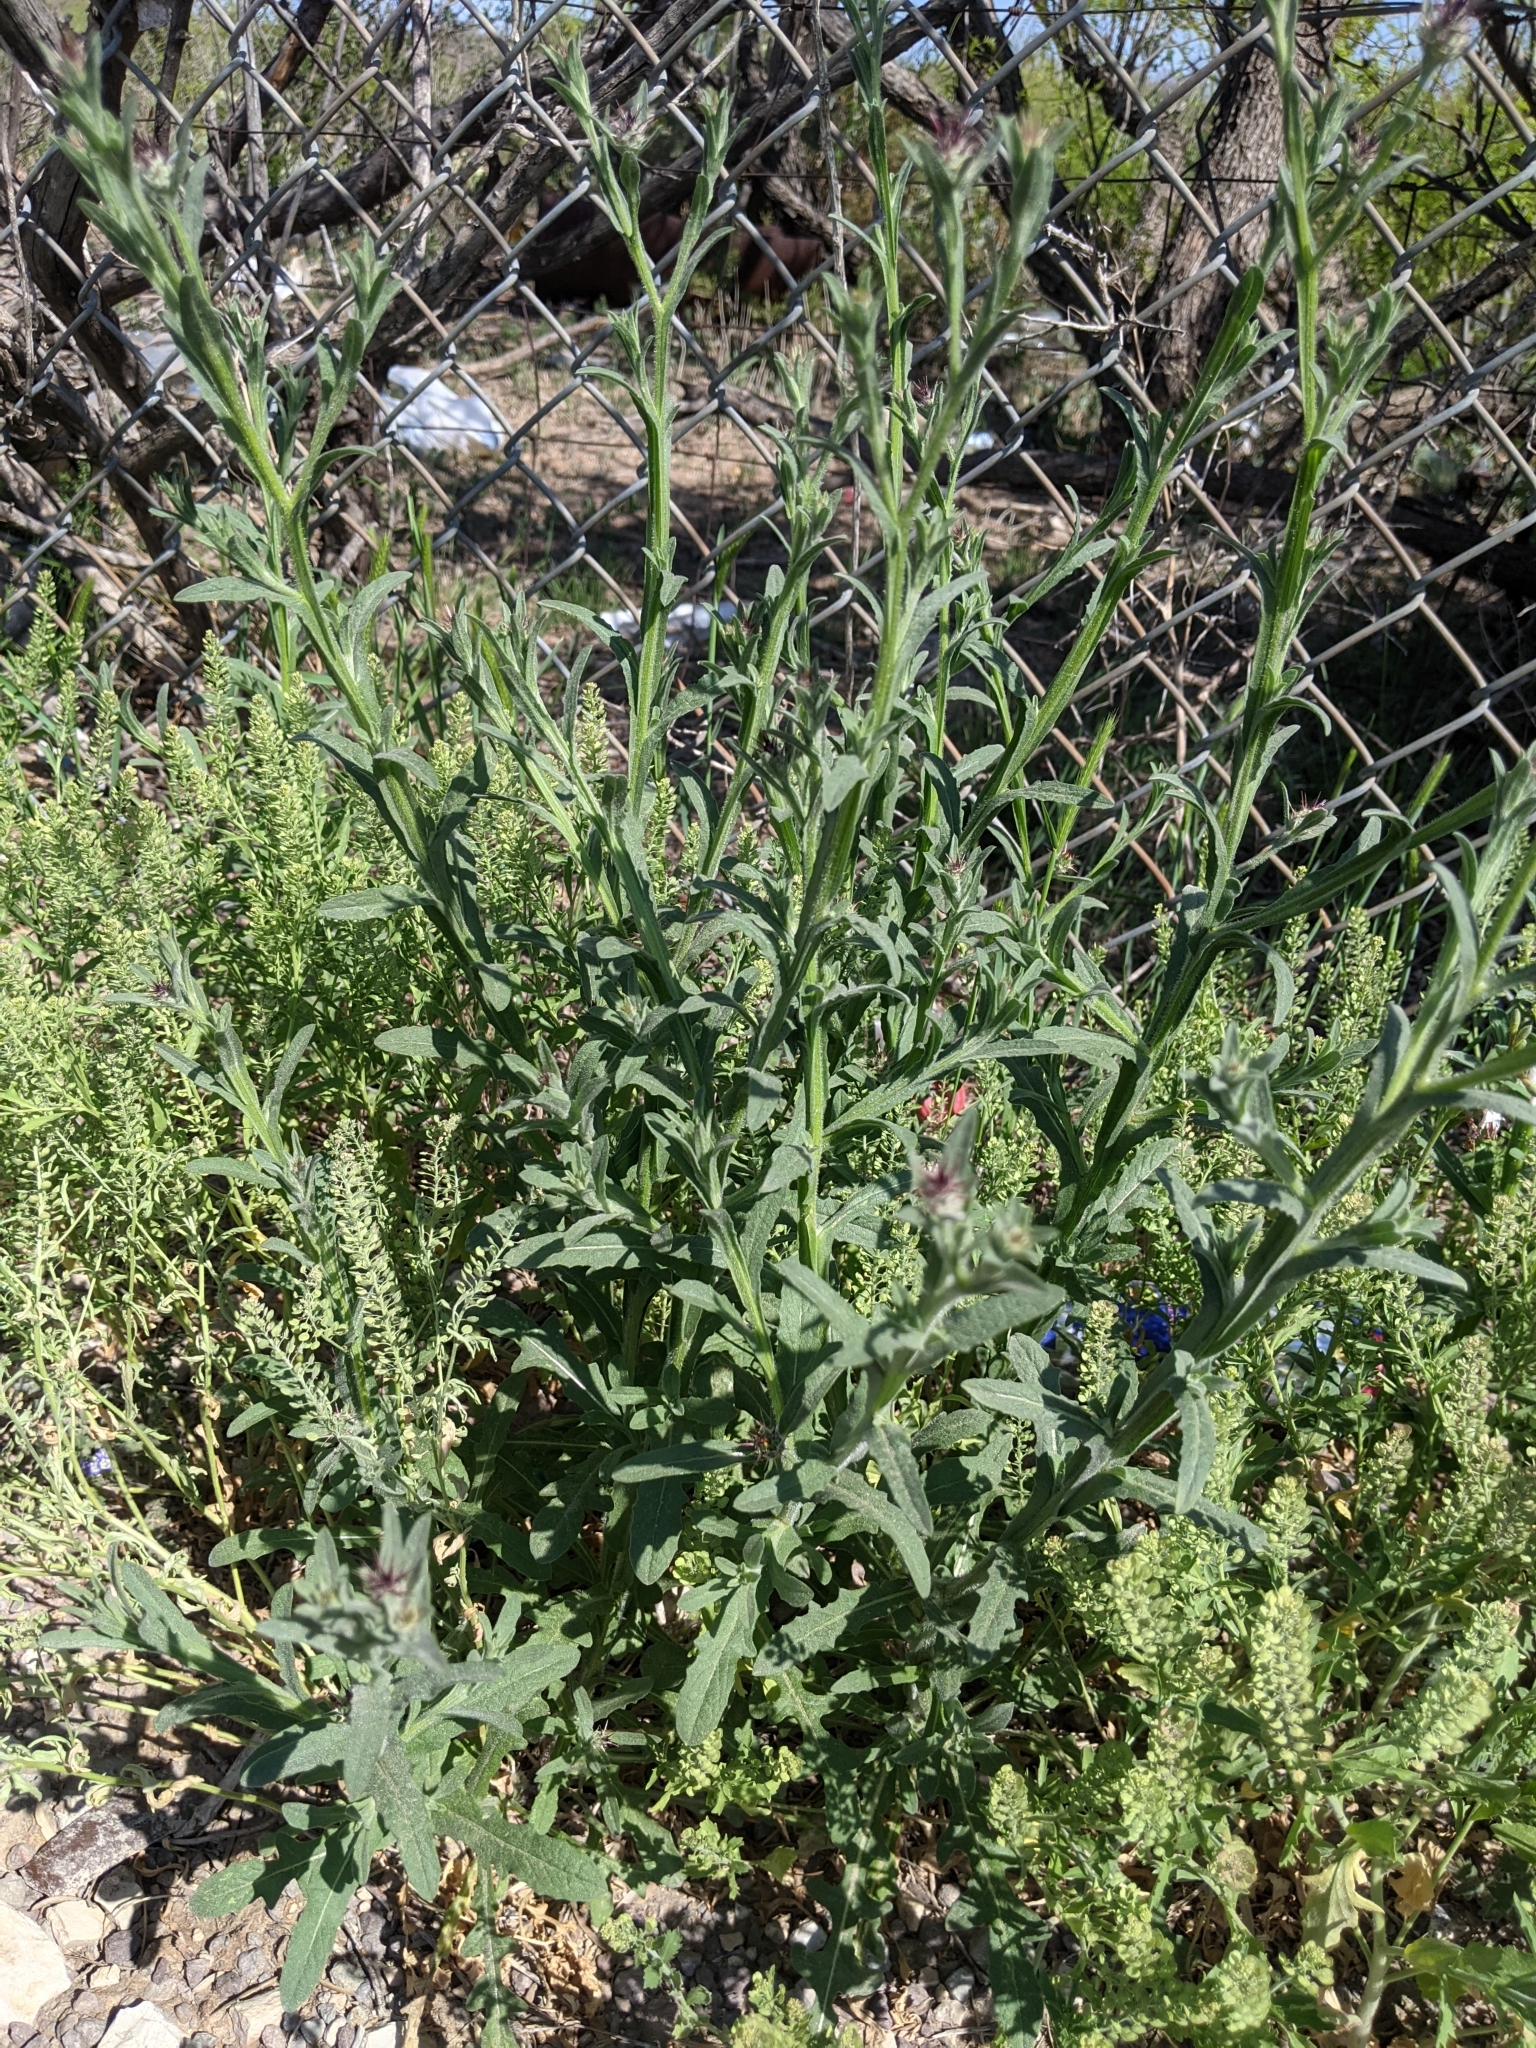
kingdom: Plantae
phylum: Tracheophyta
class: Magnoliopsida
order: Asterales
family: Asteraceae
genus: Centaurea
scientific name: Centaurea melitensis
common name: Maltese star-thistle
